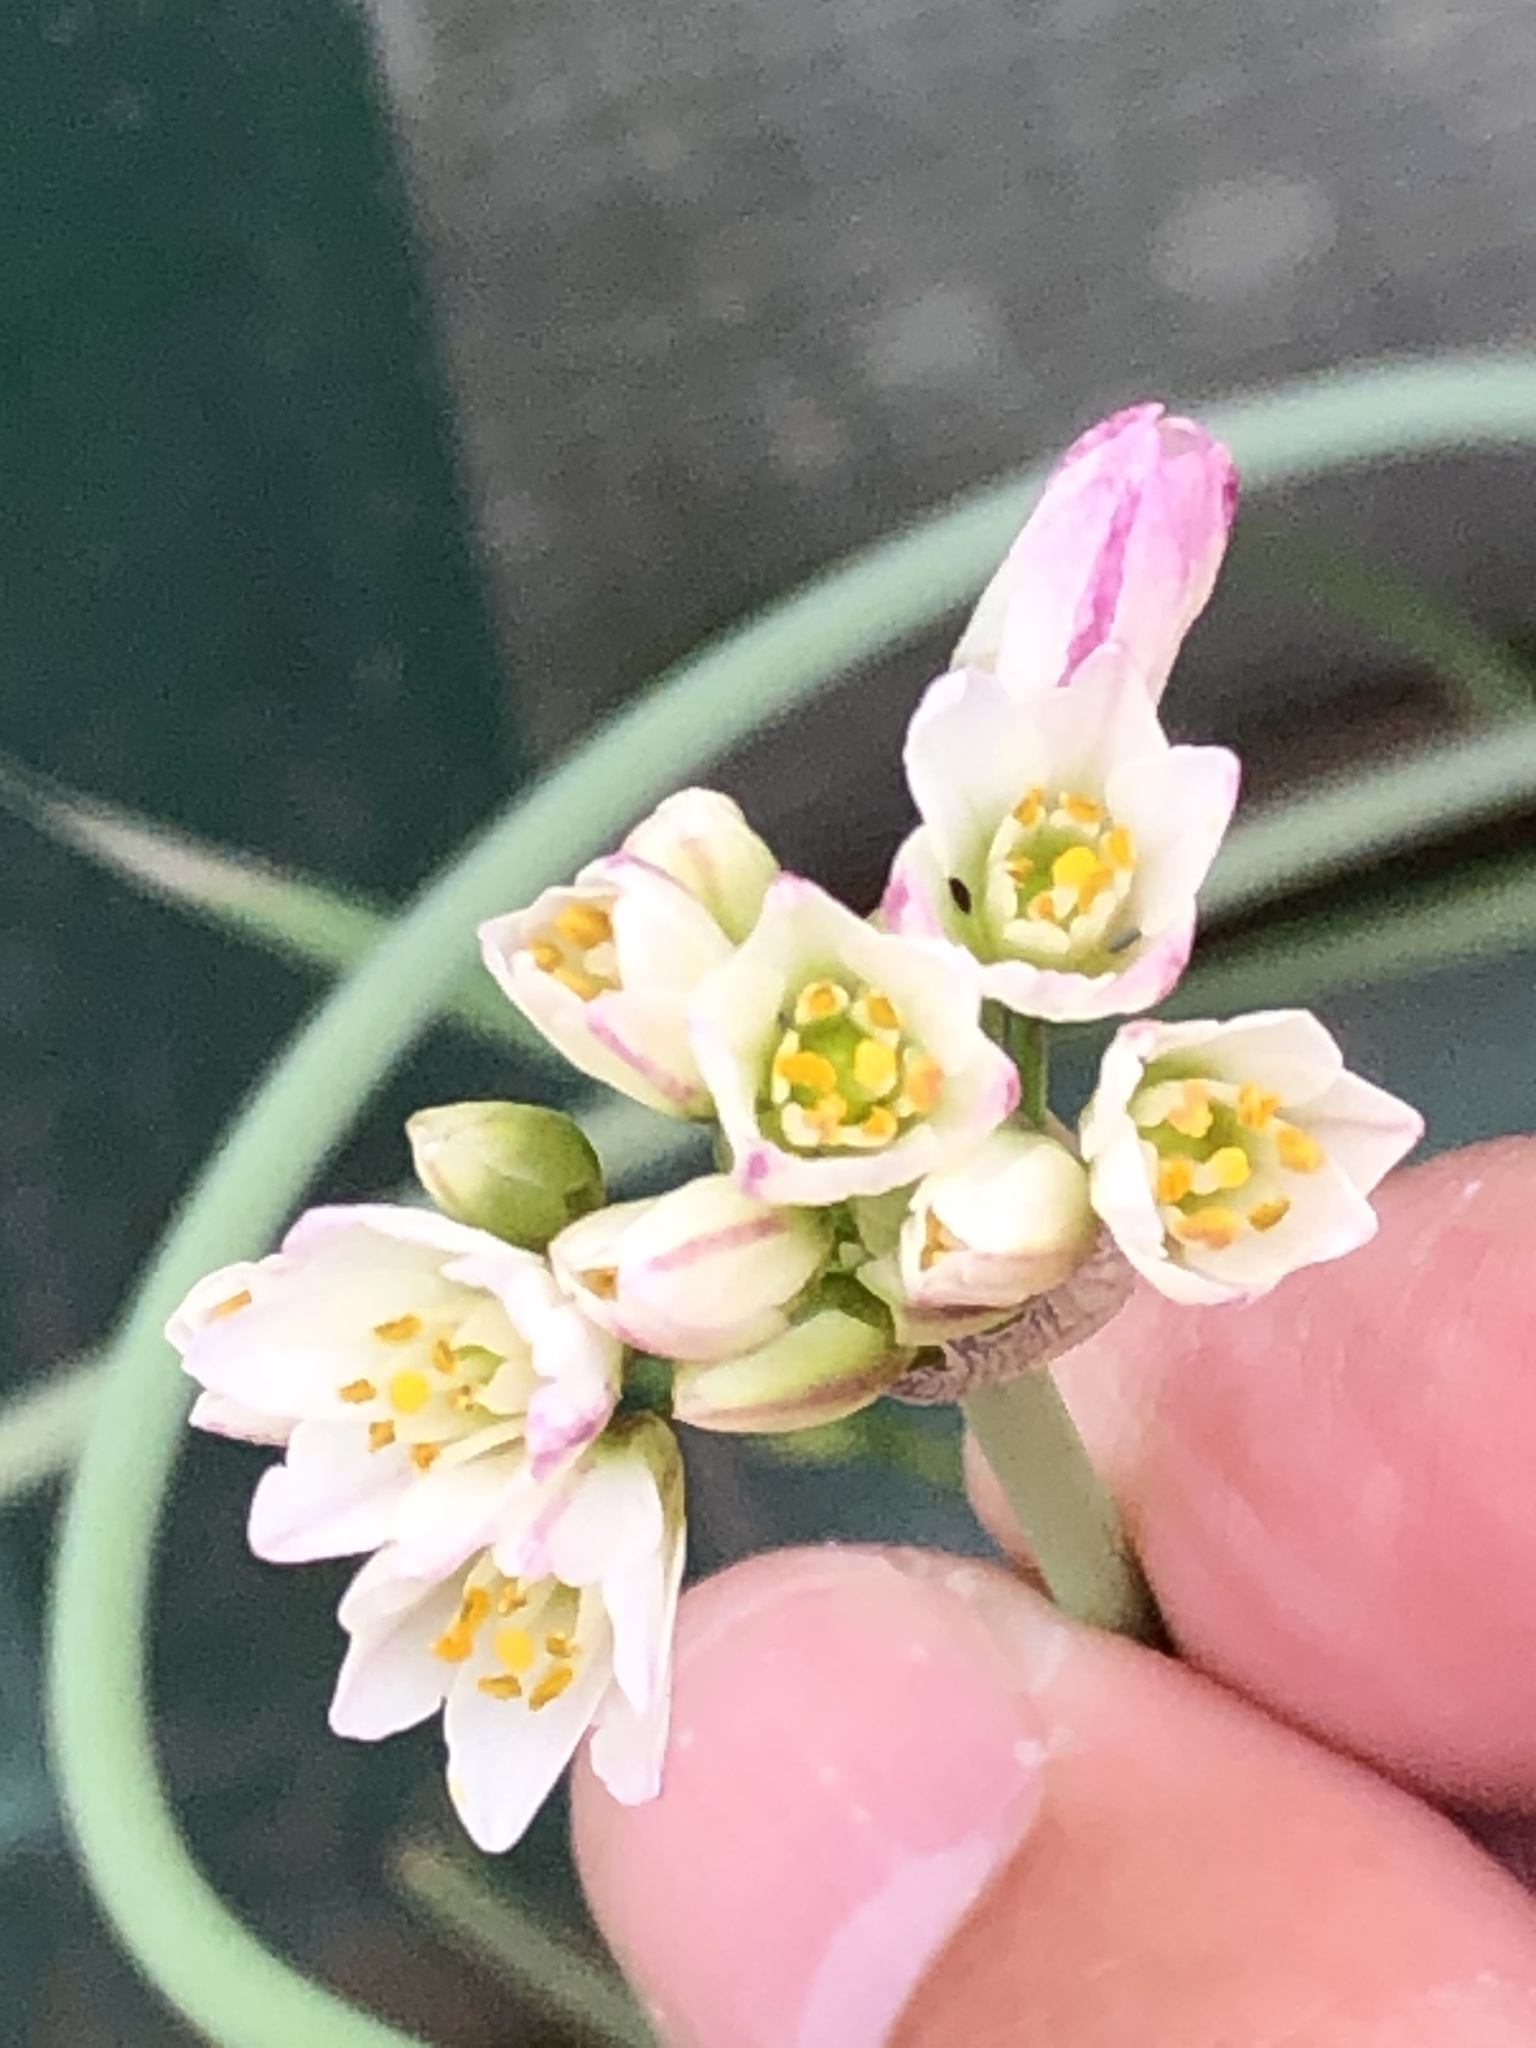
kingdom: Plantae
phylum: Tracheophyta
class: Liliopsida
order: Asparagales
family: Amaryllidaceae
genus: Nothoscordum
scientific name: Nothoscordum gracile
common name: Slender false garlic
